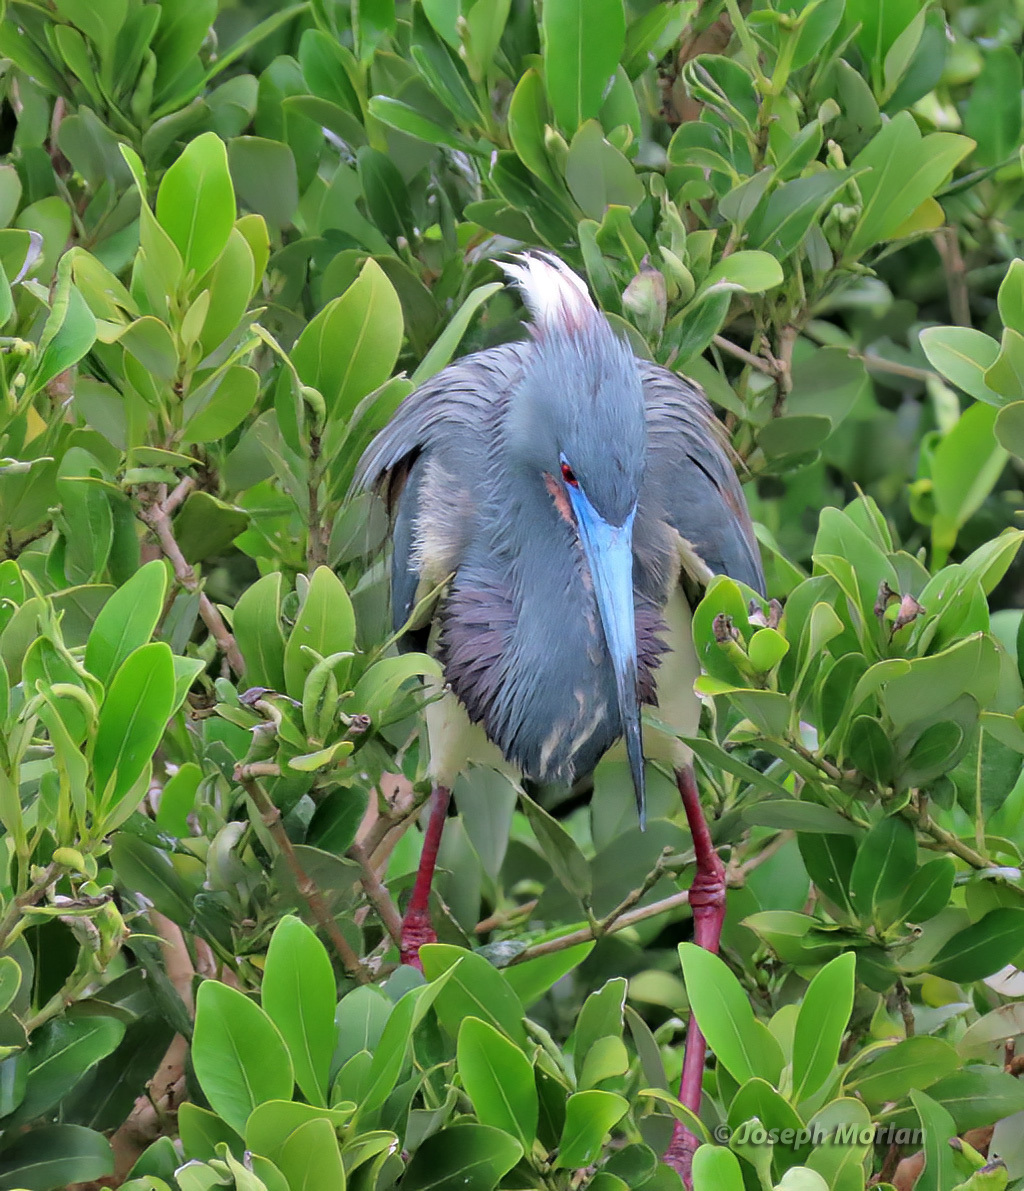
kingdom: Animalia
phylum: Chordata
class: Aves
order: Pelecaniformes
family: Ardeidae
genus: Egretta
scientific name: Egretta tricolor
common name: Tricolored heron
